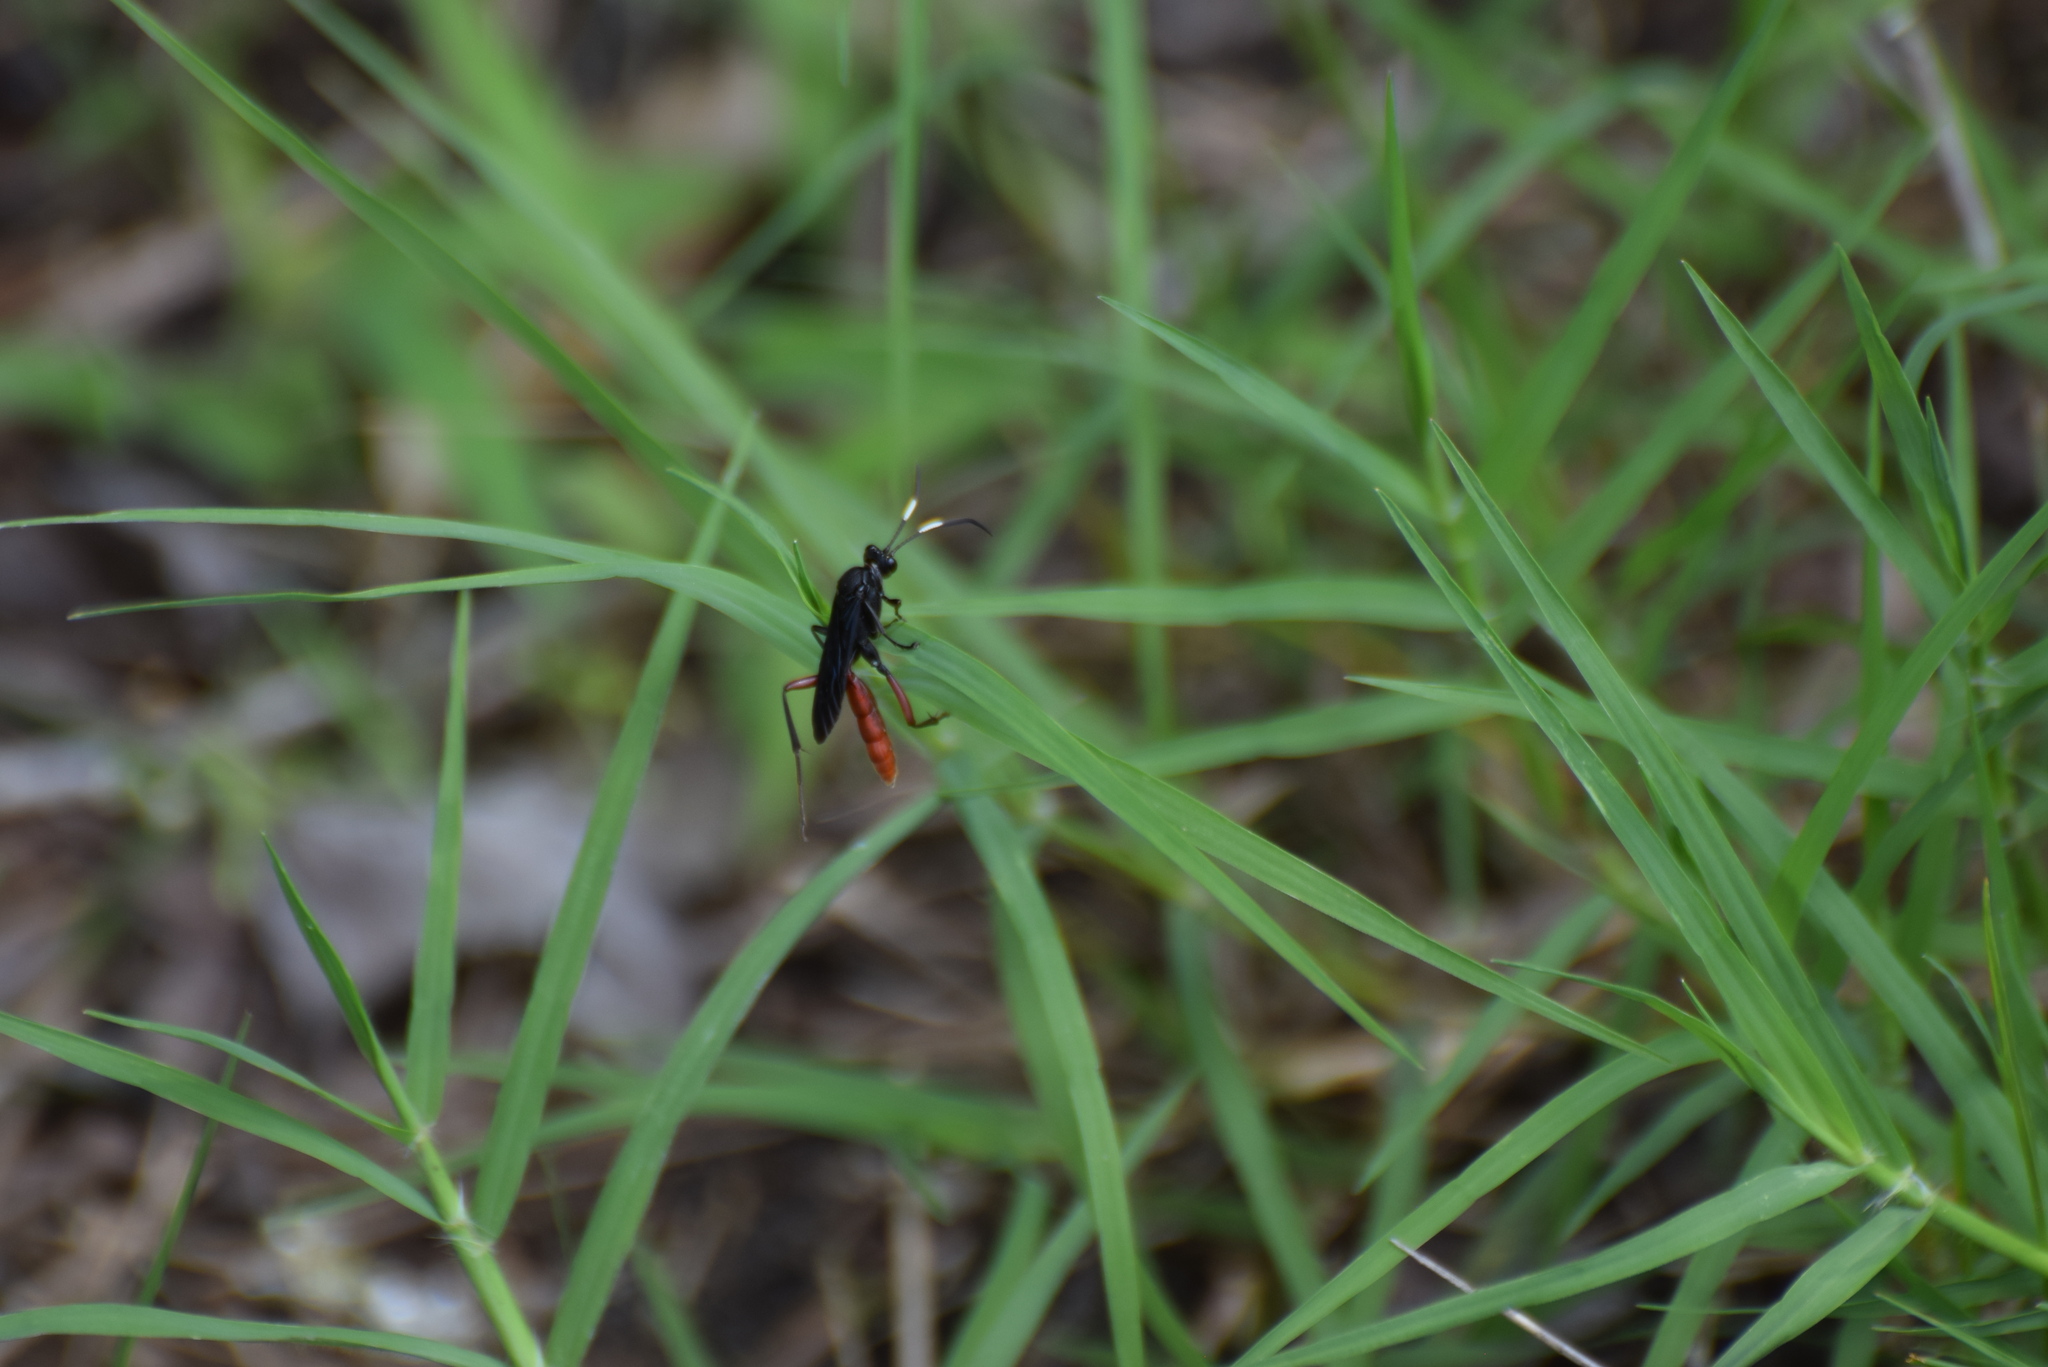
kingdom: Animalia
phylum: Arthropoda
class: Insecta
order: Hymenoptera
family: Ichneumonidae
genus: Limonethe
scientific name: Limonethe maurator
